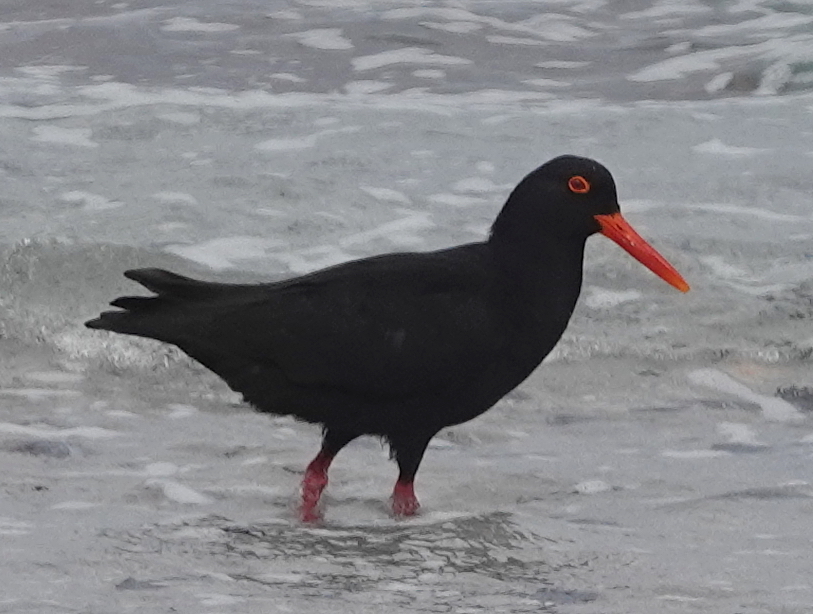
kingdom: Animalia
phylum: Chordata
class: Aves
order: Charadriiformes
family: Haematopodidae
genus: Haematopus
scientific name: Haematopus moquini
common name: African oystercatcher
